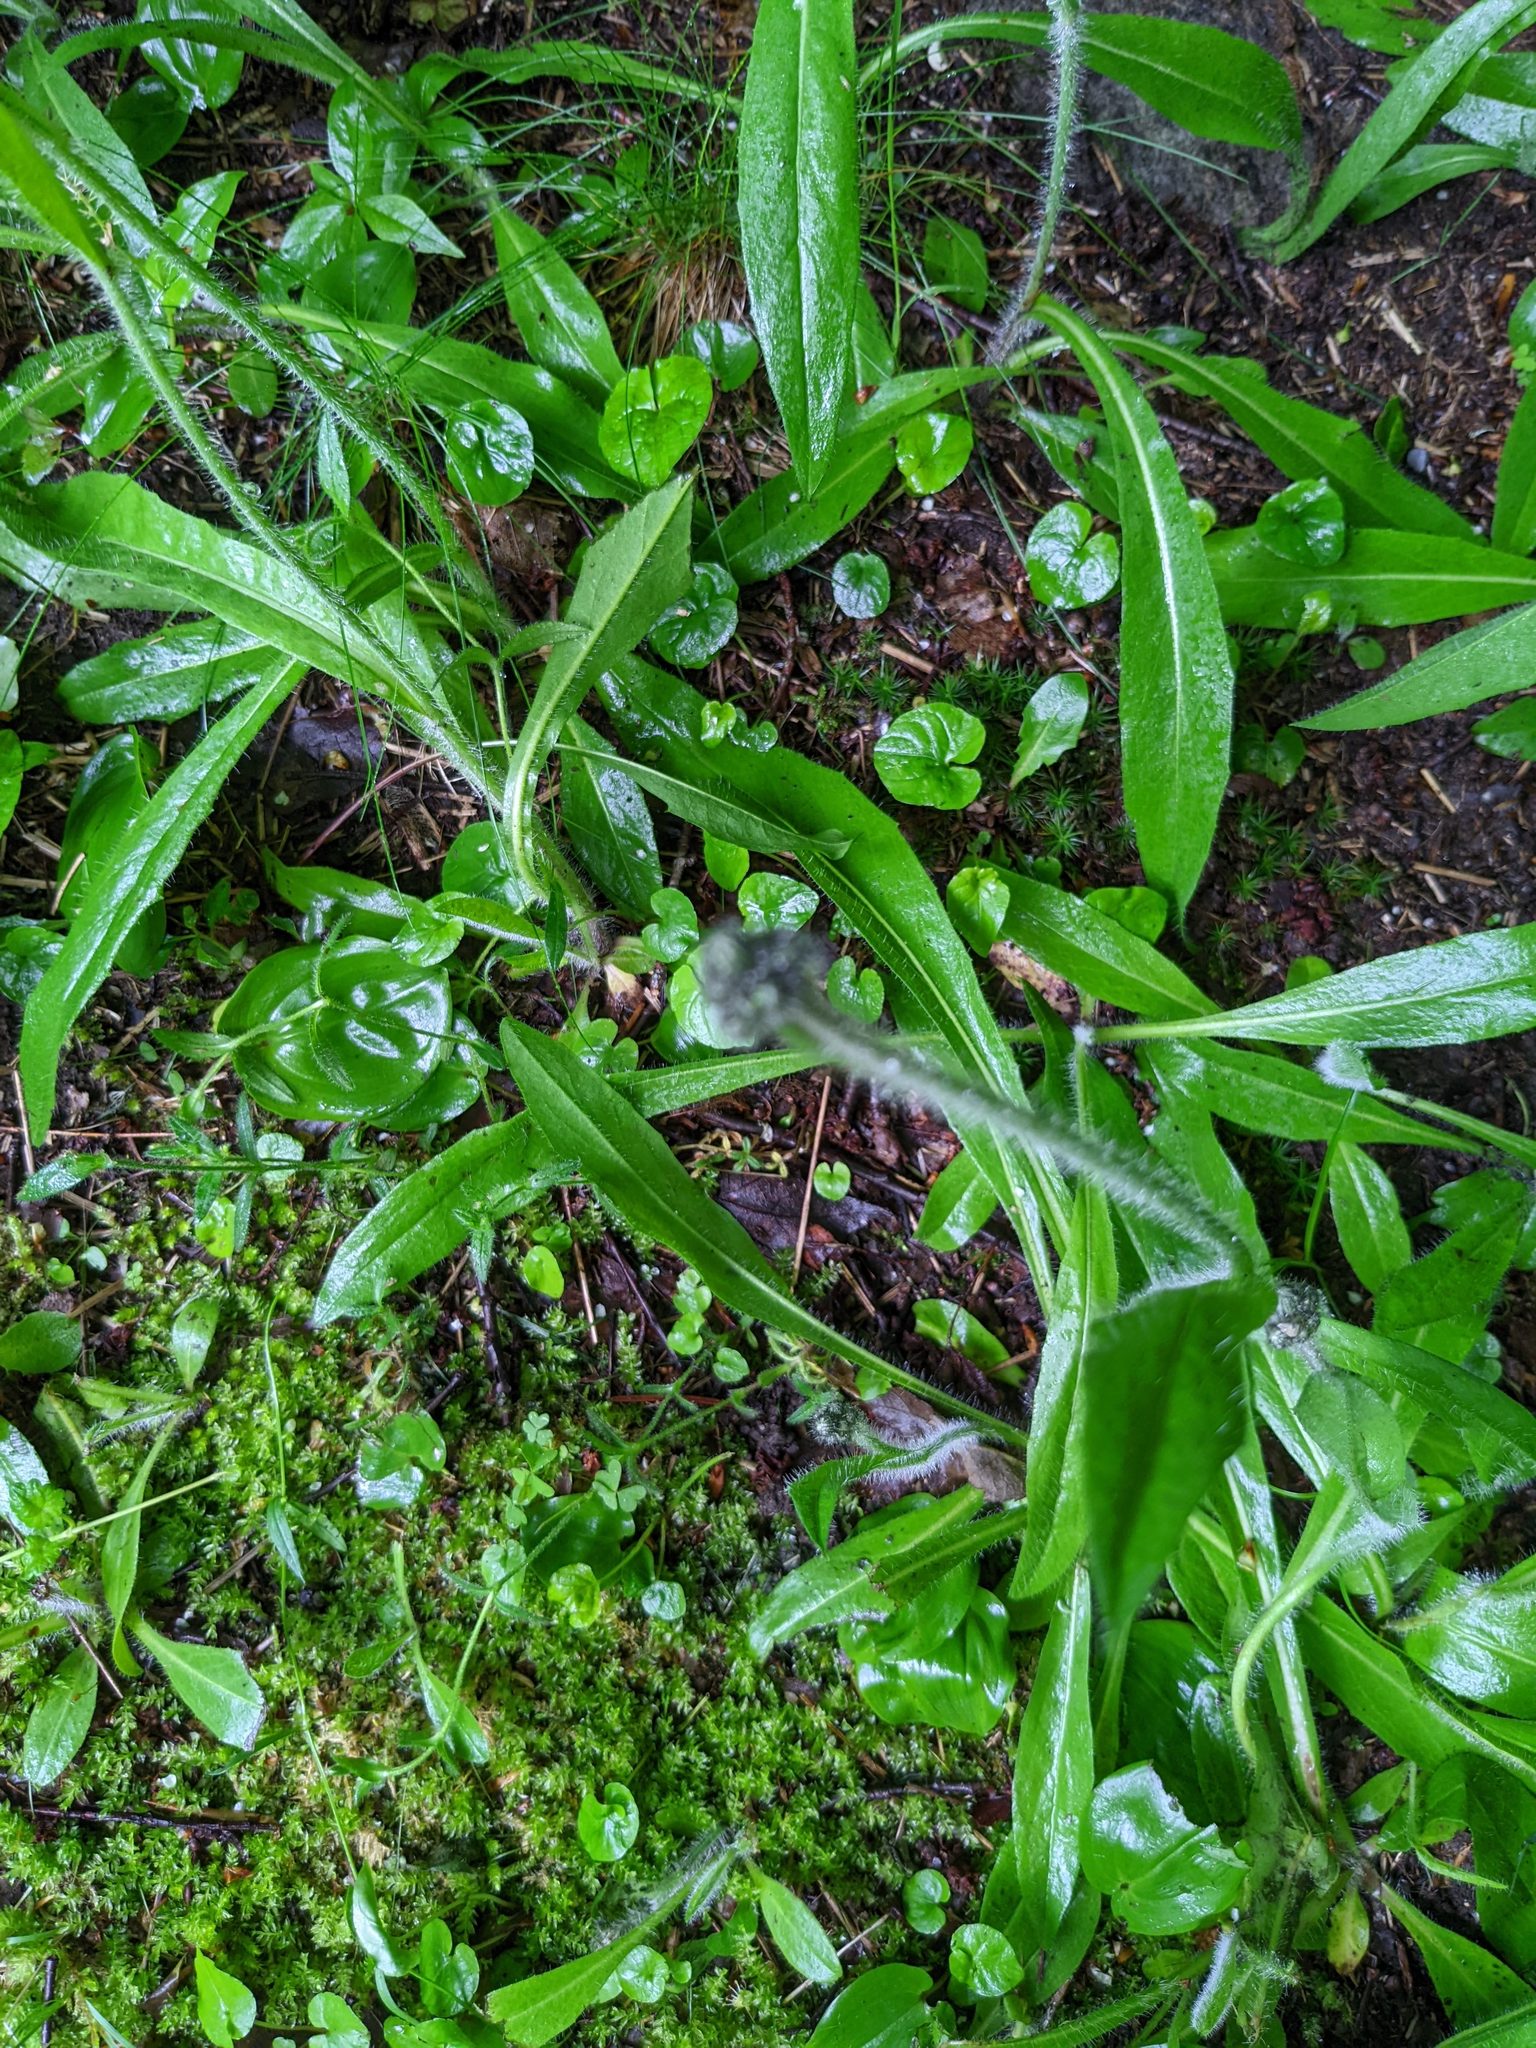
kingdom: Plantae
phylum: Tracheophyta
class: Magnoliopsida
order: Asterales
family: Asteraceae
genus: Pilosella
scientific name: Pilosella aurantiaca
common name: Fox-and-cubs
